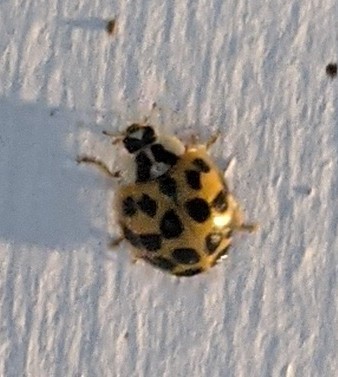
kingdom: Animalia
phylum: Arthropoda
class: Insecta
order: Coleoptera
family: Coccinellidae
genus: Harmonia
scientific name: Harmonia axyridis
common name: Harlequin ladybird
